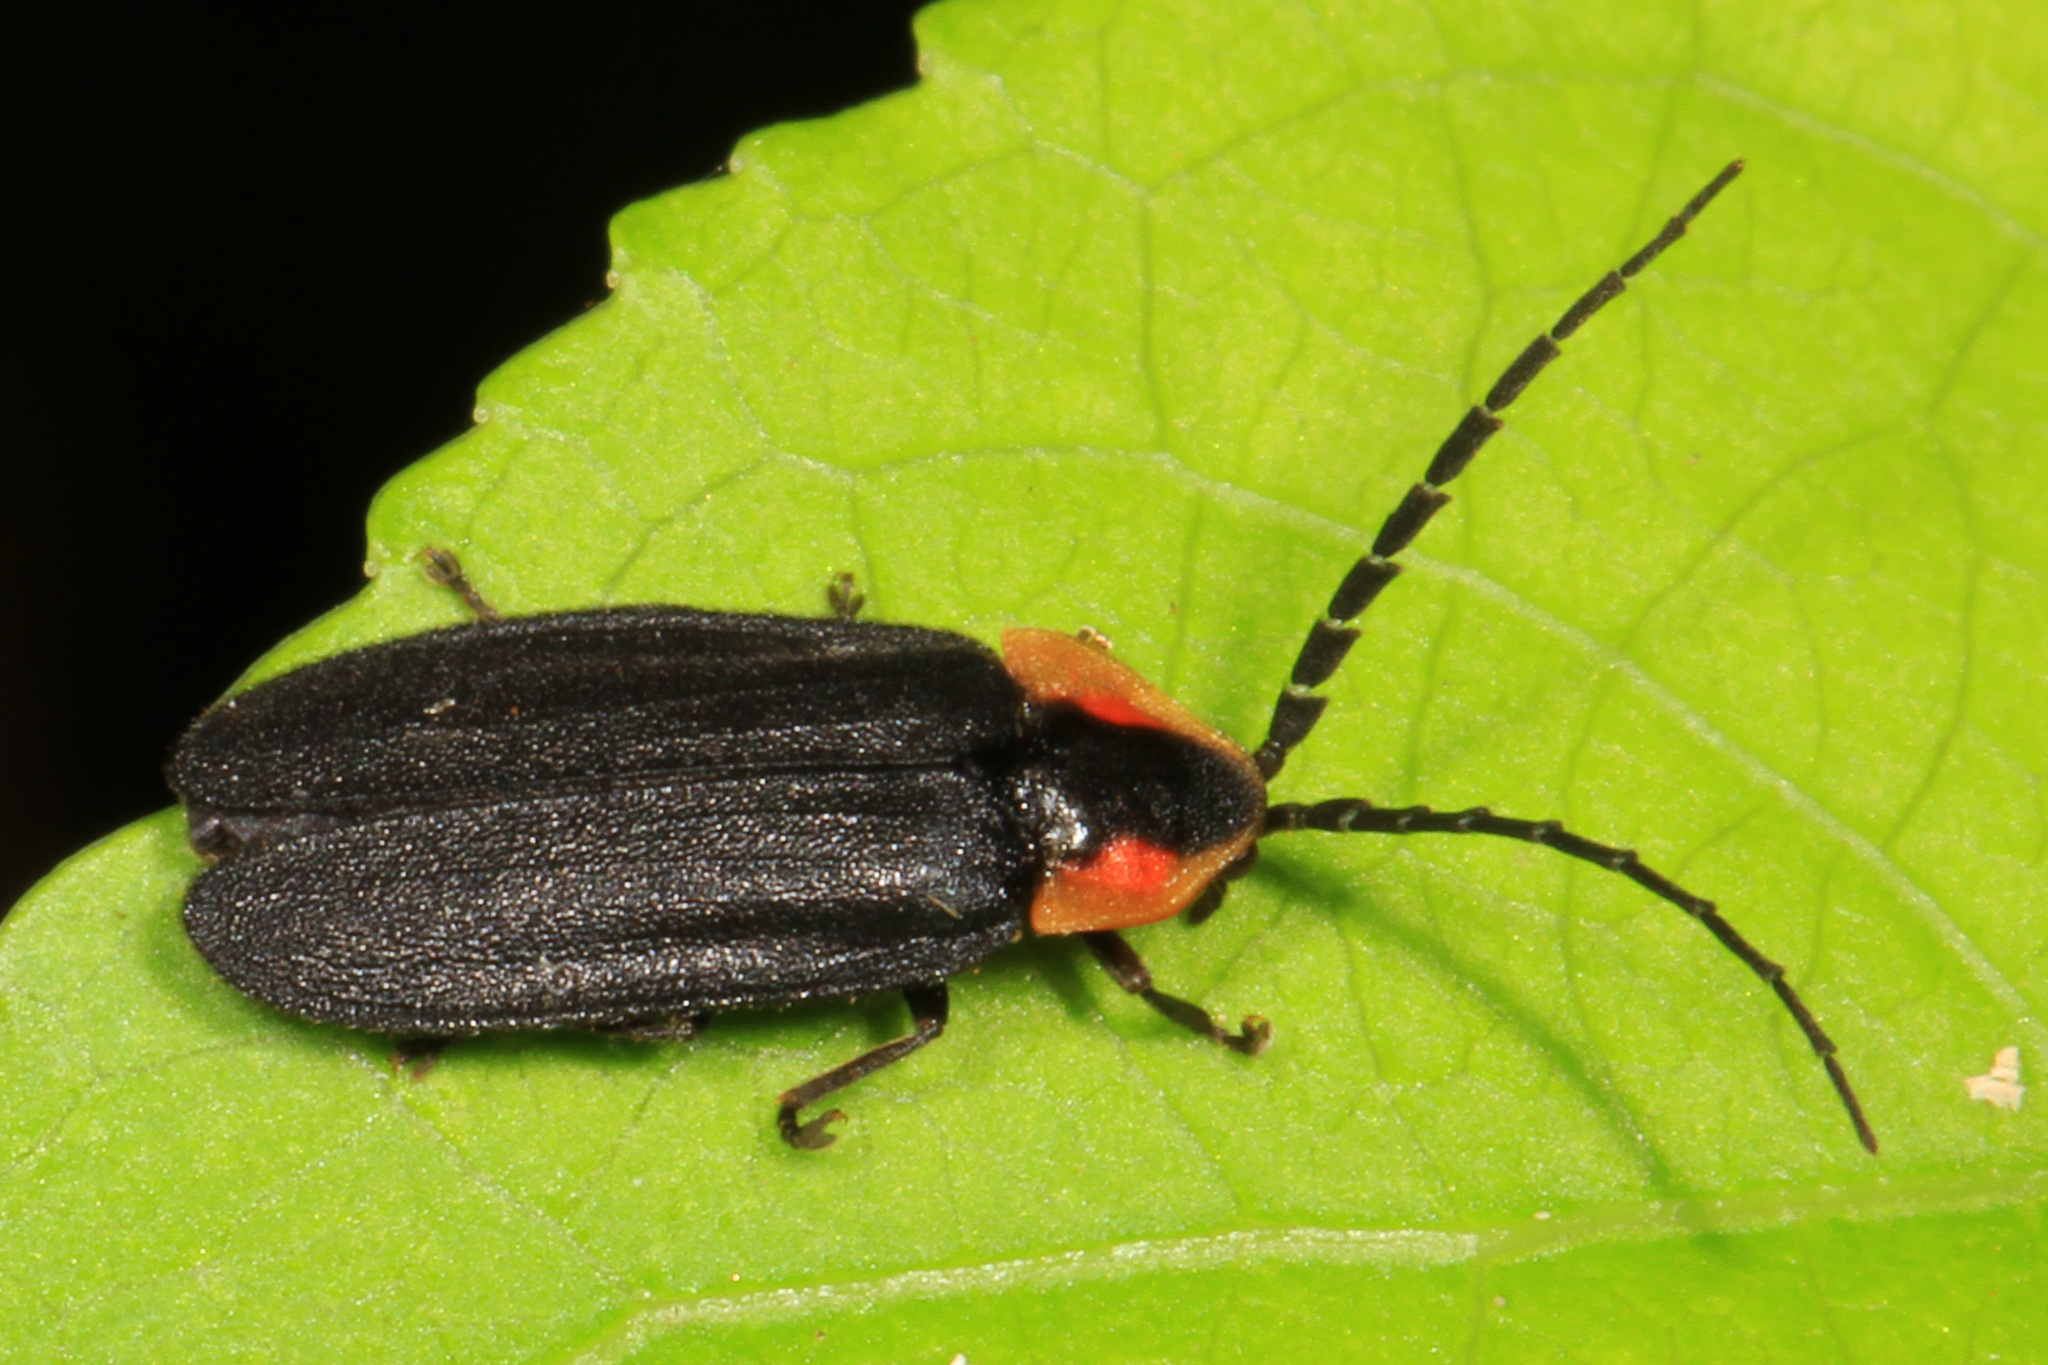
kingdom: Animalia
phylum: Arthropoda
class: Insecta
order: Coleoptera
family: Lampyridae
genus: Lucidota
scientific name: Lucidota atra
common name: Black firefly
